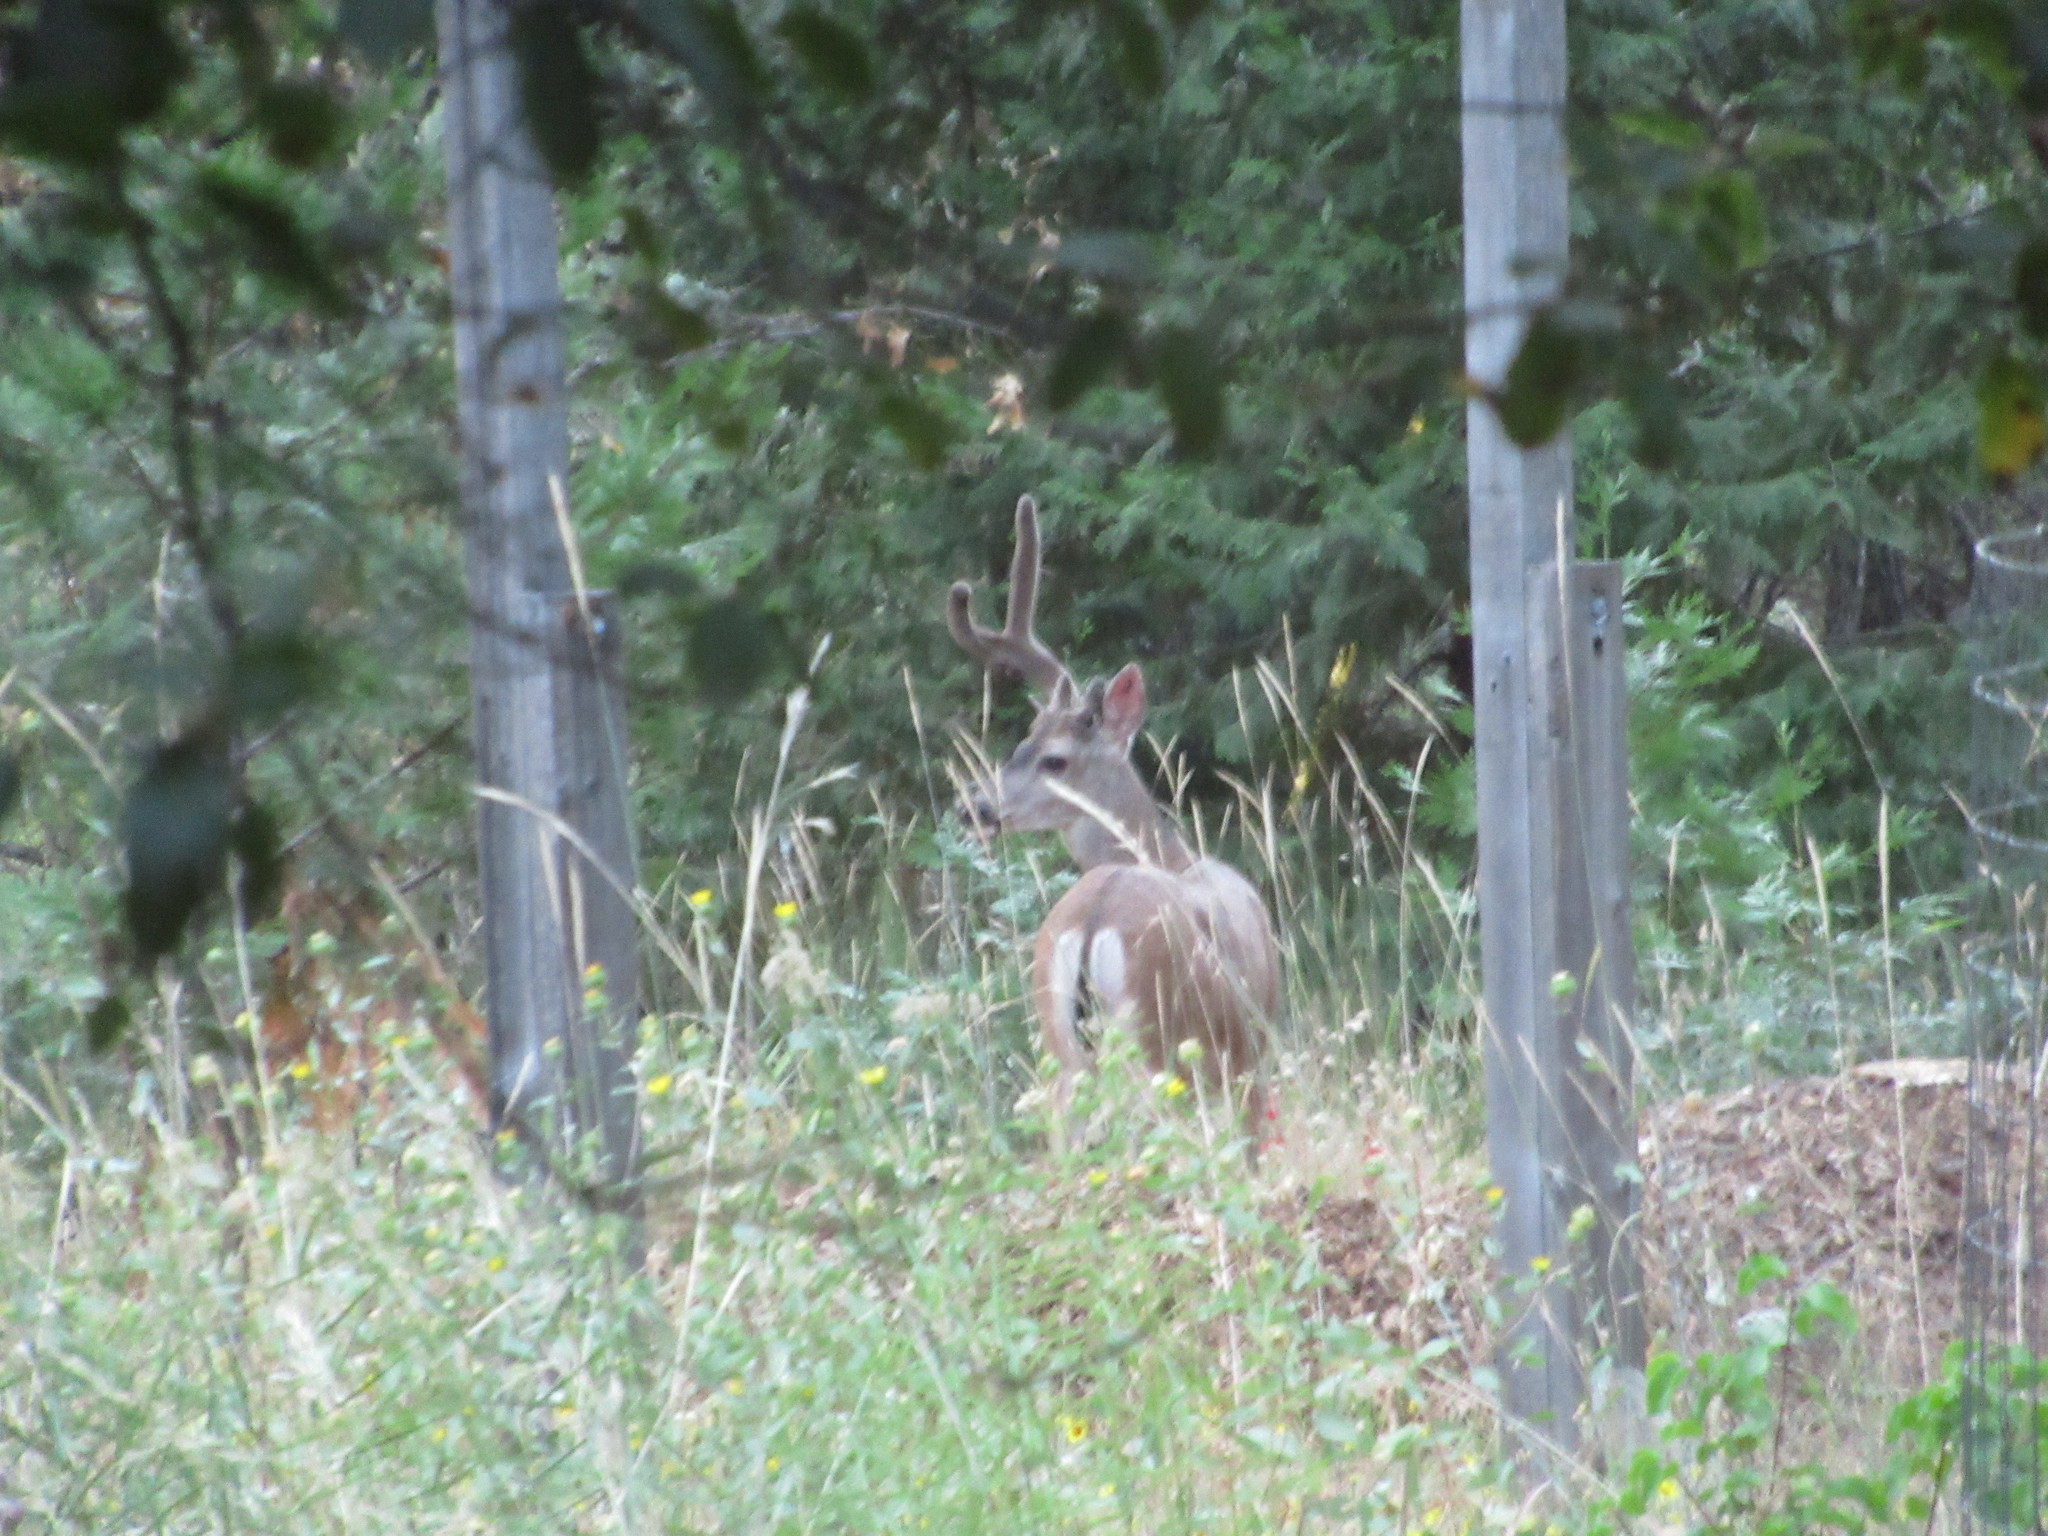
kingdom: Animalia
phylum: Chordata
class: Mammalia
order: Artiodactyla
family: Cervidae
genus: Odocoileus
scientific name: Odocoileus hemionus
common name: Mule deer
